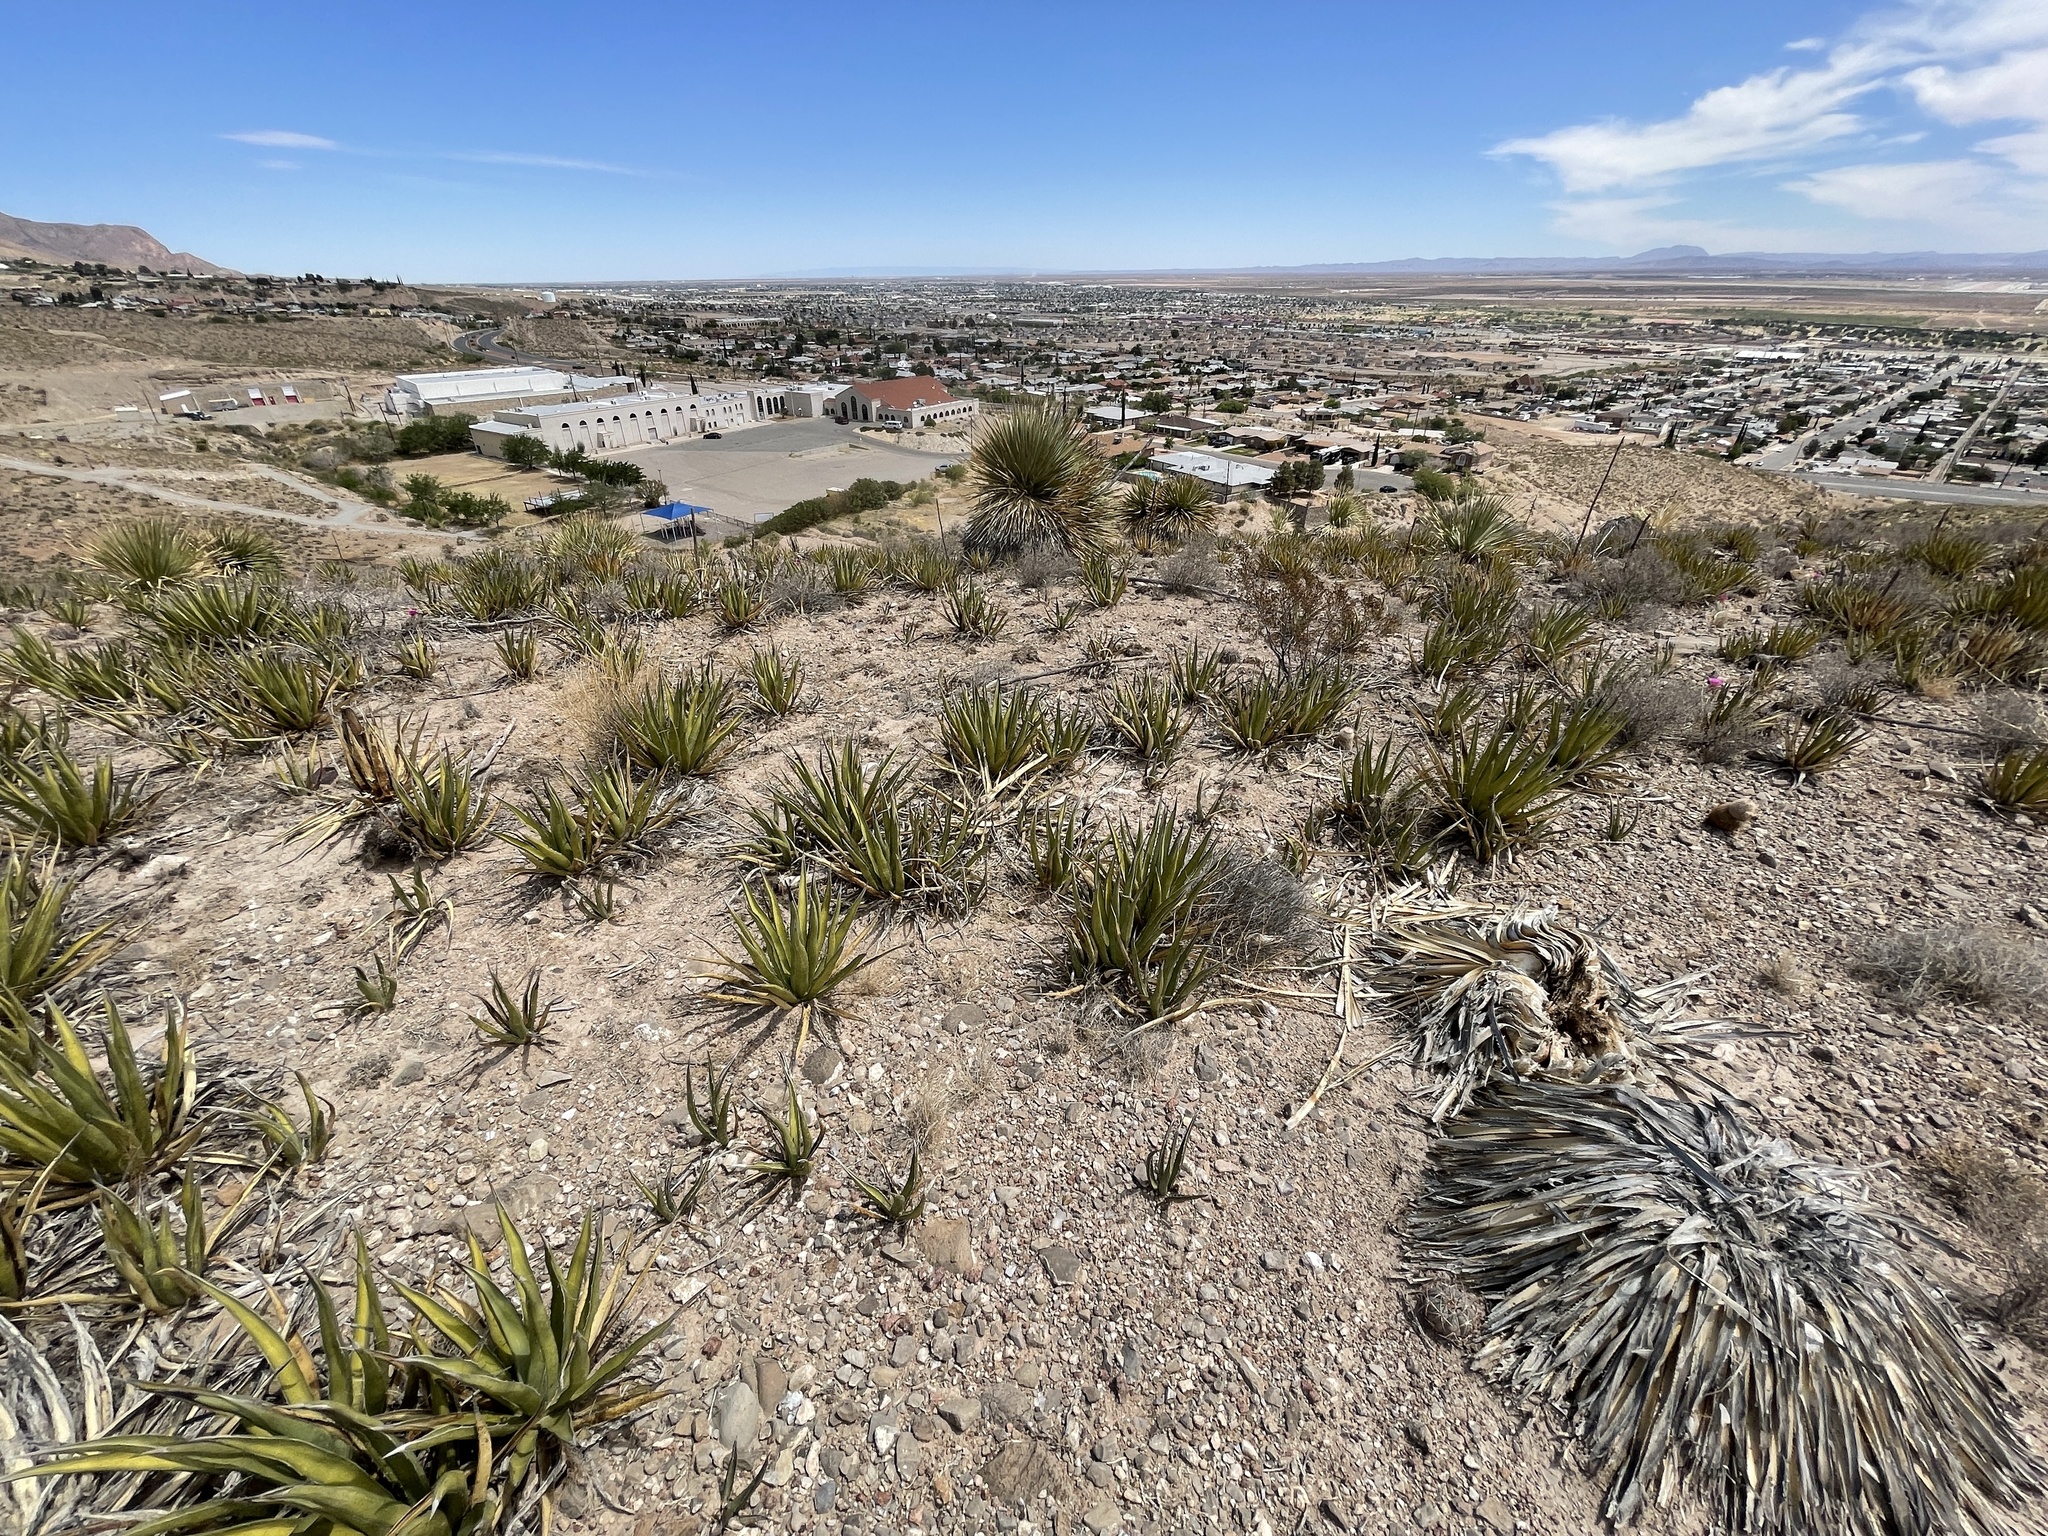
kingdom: Plantae
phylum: Tracheophyta
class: Liliopsida
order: Asparagales
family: Asparagaceae
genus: Agave
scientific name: Agave lechuguilla
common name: Lecheguilla agave
